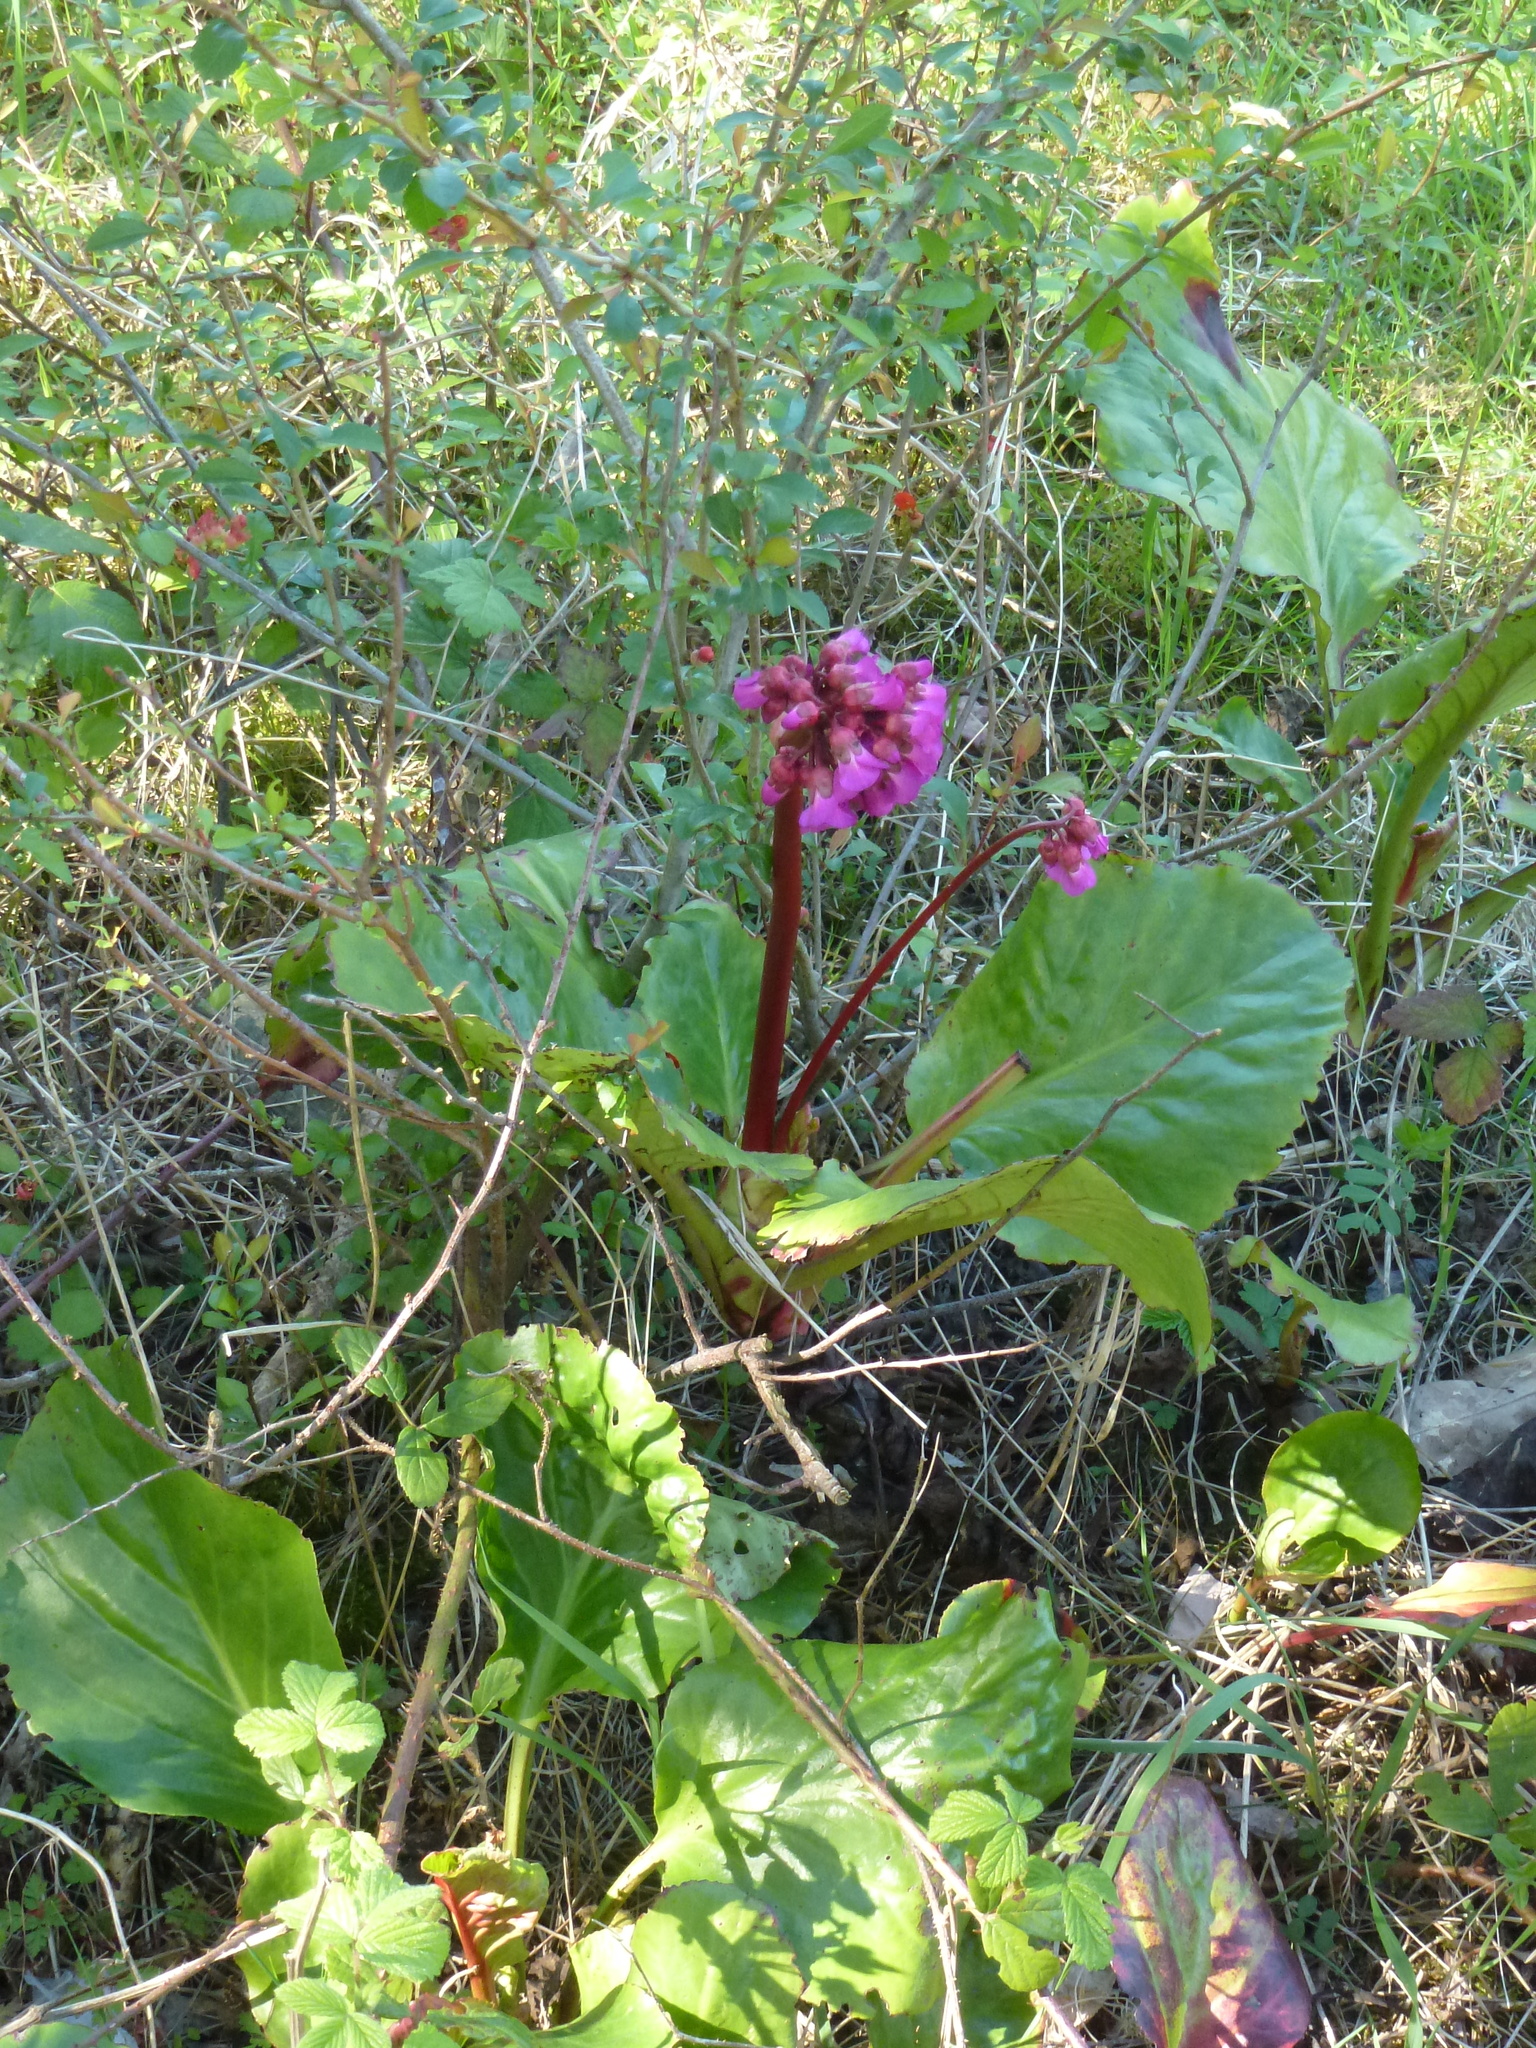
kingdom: Plantae
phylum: Tracheophyta
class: Magnoliopsida
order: Saxifragales
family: Saxifragaceae
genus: Bergenia
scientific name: Bergenia crassifolia
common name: Elephant-ears
